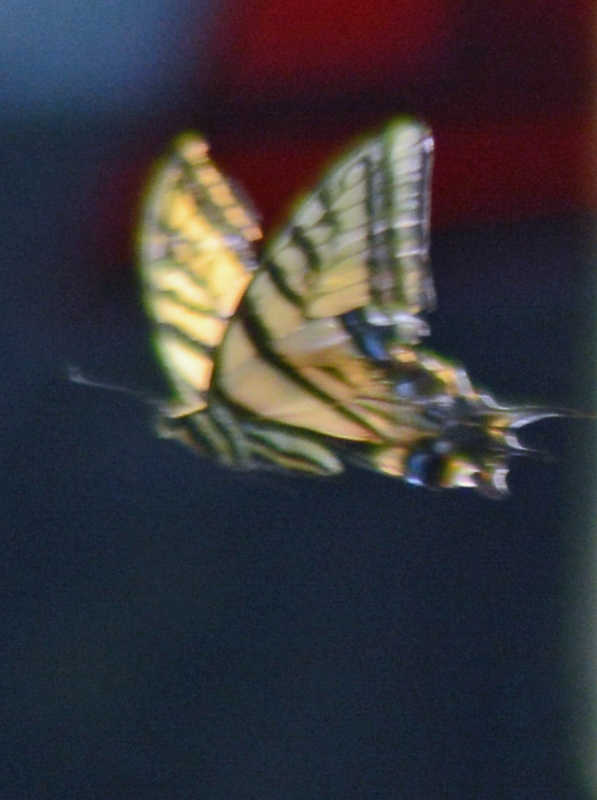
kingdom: Animalia
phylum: Arthropoda
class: Insecta
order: Lepidoptera
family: Papilionidae
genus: Papilio
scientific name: Papilio multicaudata
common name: Two-tailed tiger swallowtail
